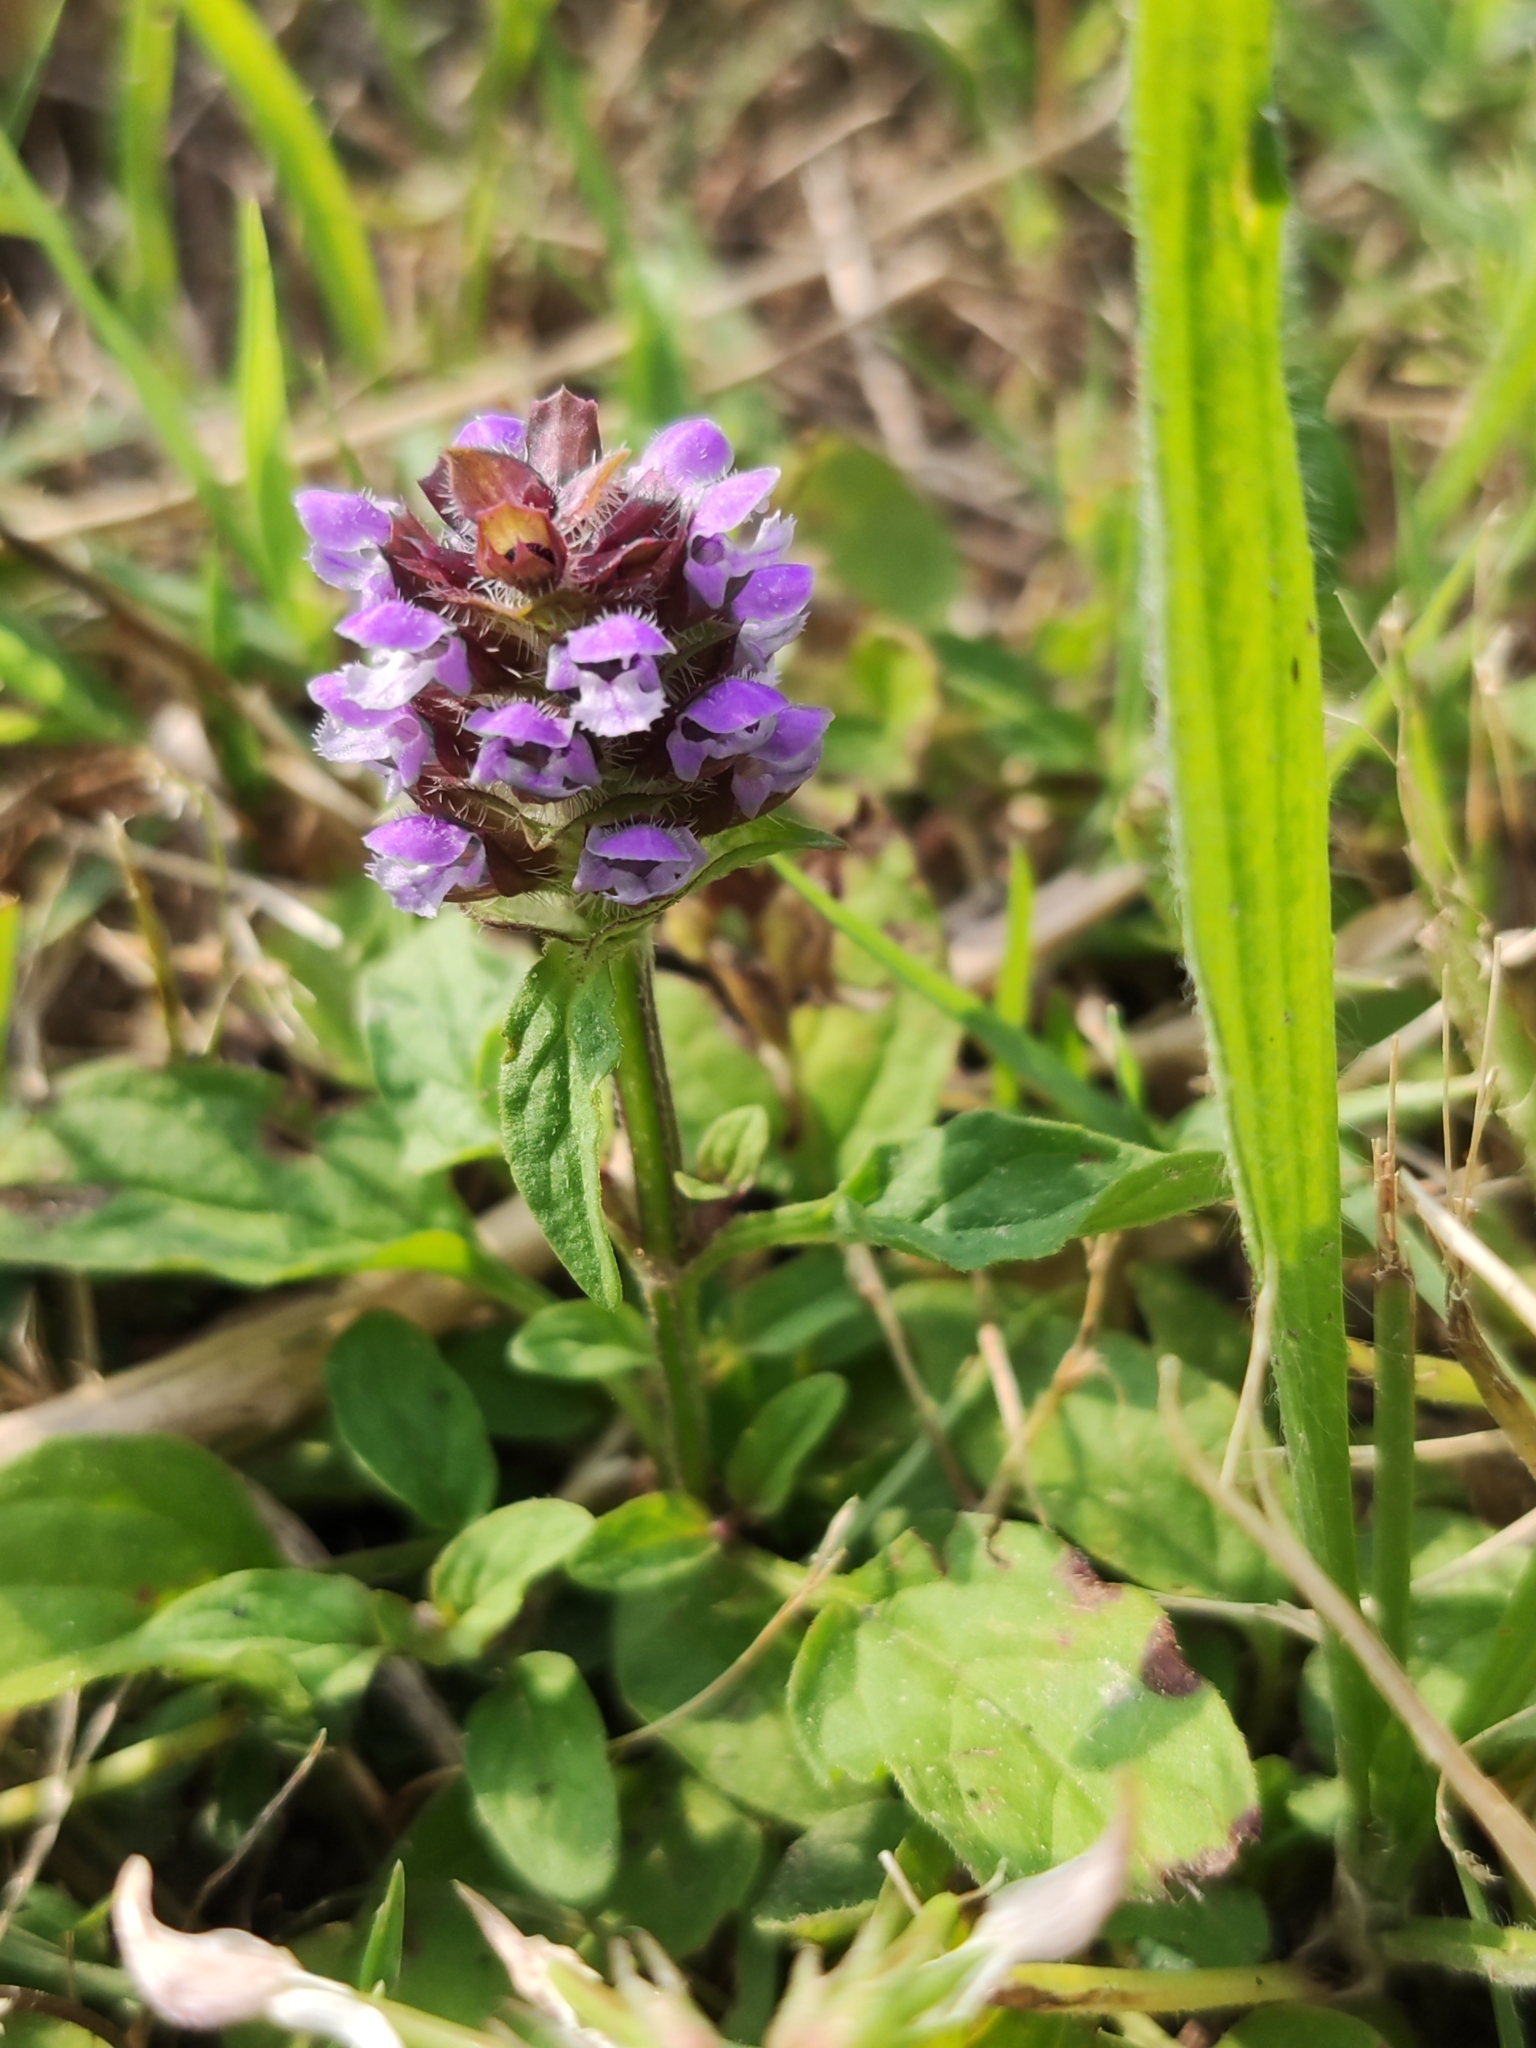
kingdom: Plantae
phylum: Tracheophyta
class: Magnoliopsida
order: Lamiales
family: Lamiaceae
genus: Prunella
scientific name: Prunella vulgaris
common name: Heal-all
